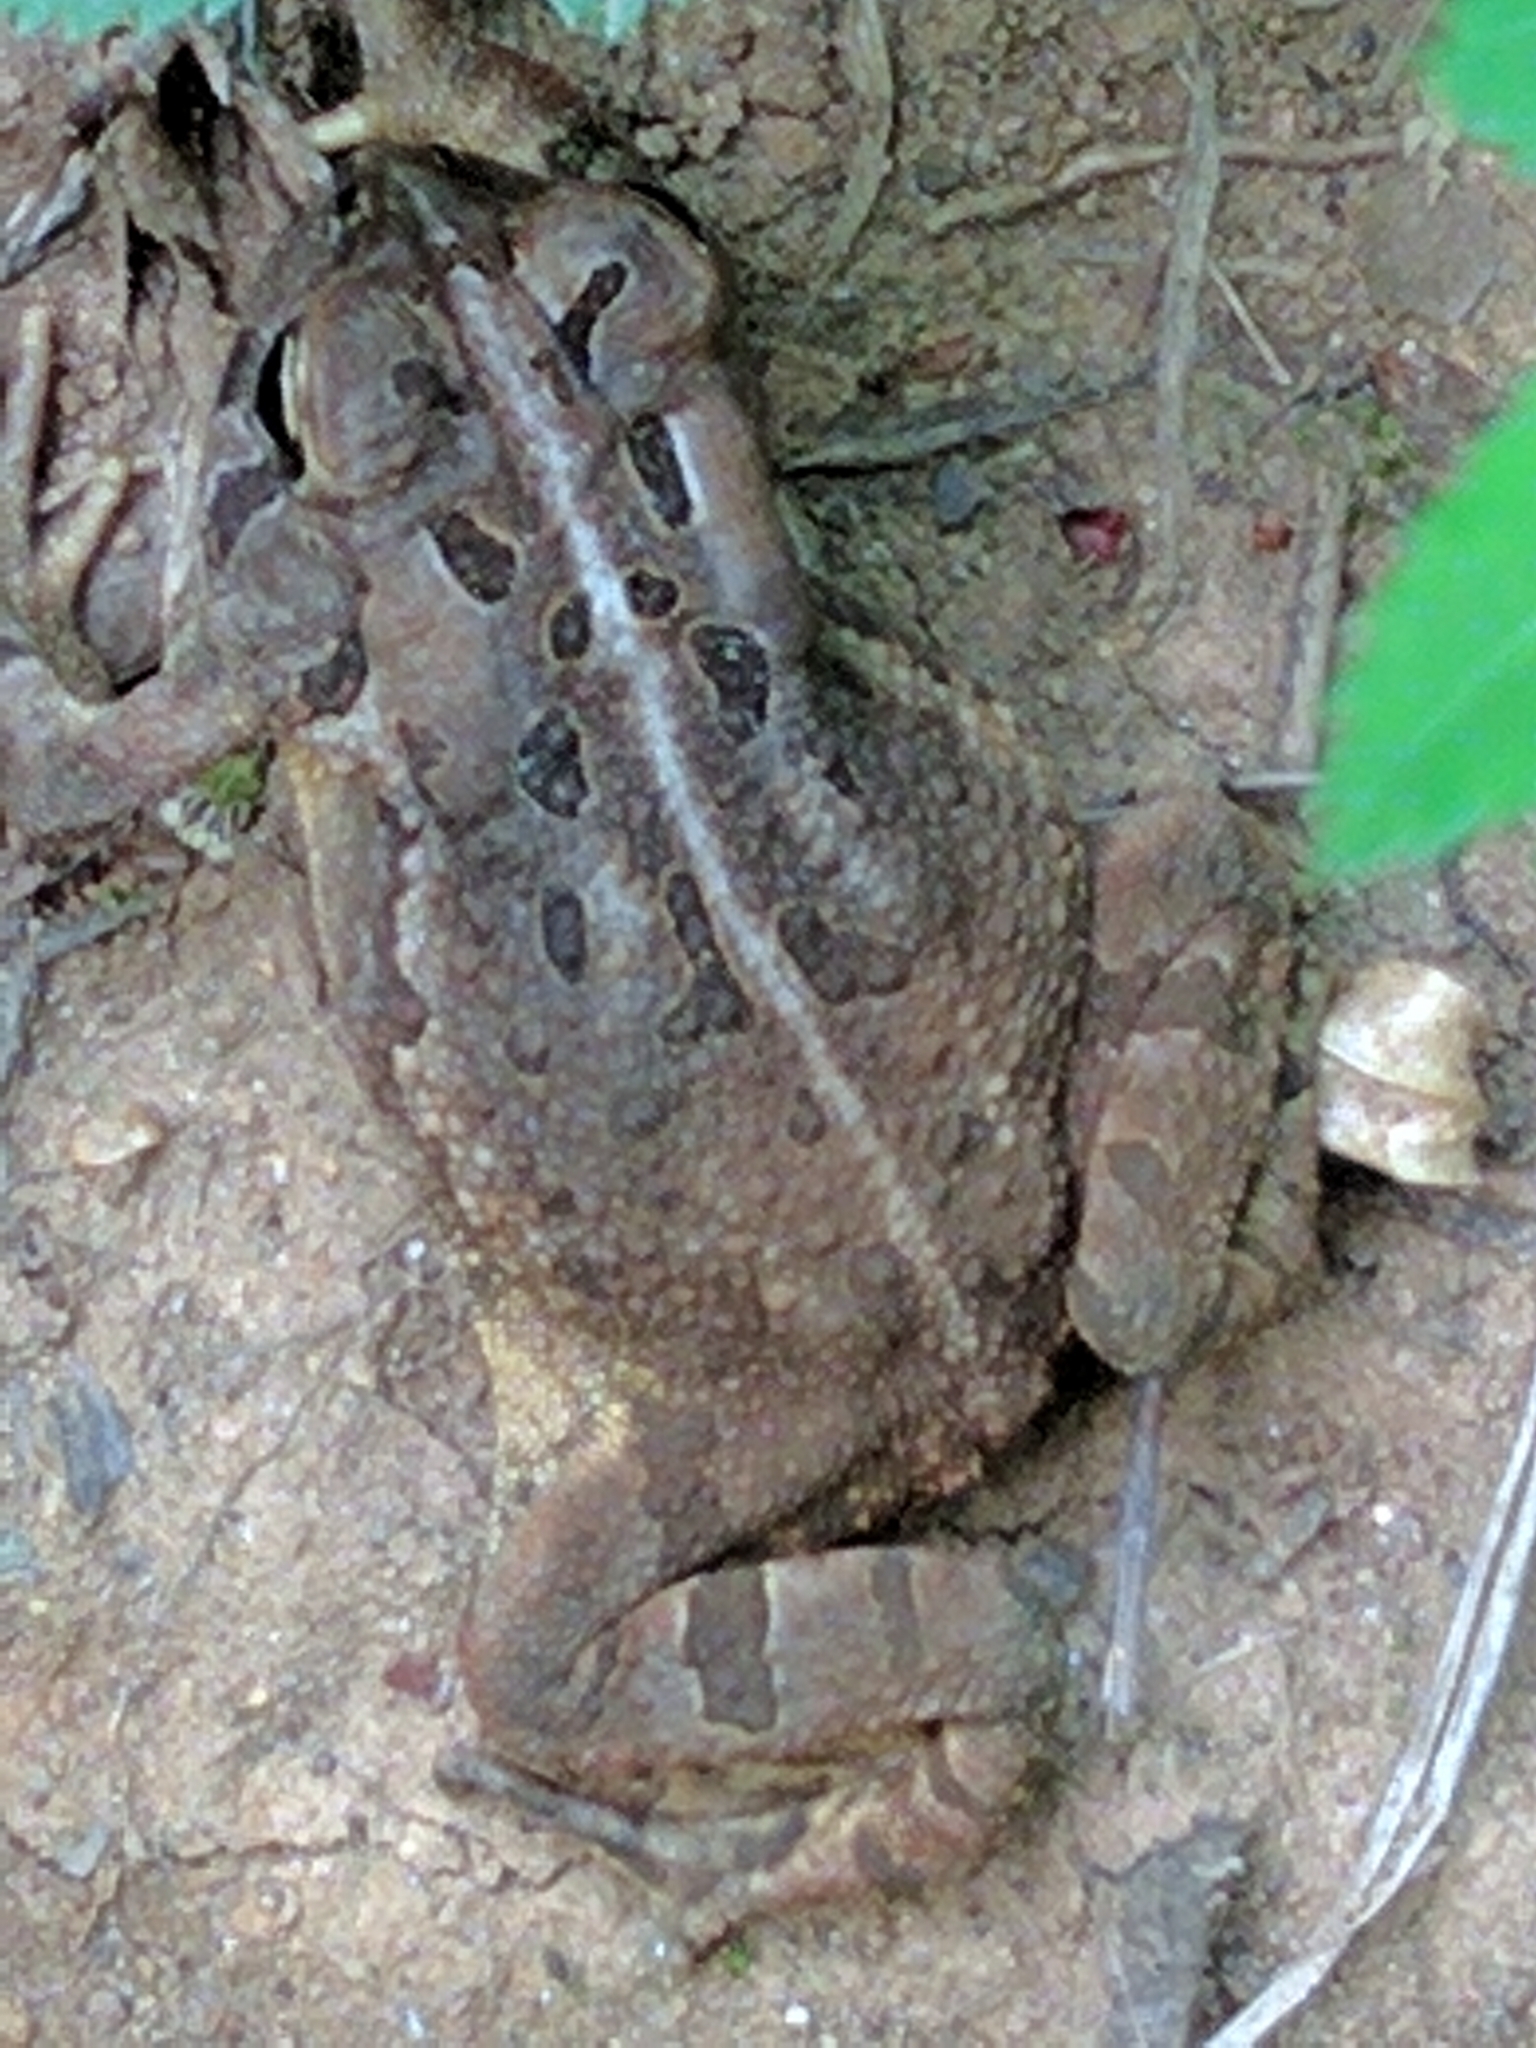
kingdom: Animalia
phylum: Chordata
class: Amphibia
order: Anura
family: Bufonidae
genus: Anaxyrus
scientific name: Anaxyrus fowleri
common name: Fowler's toad
